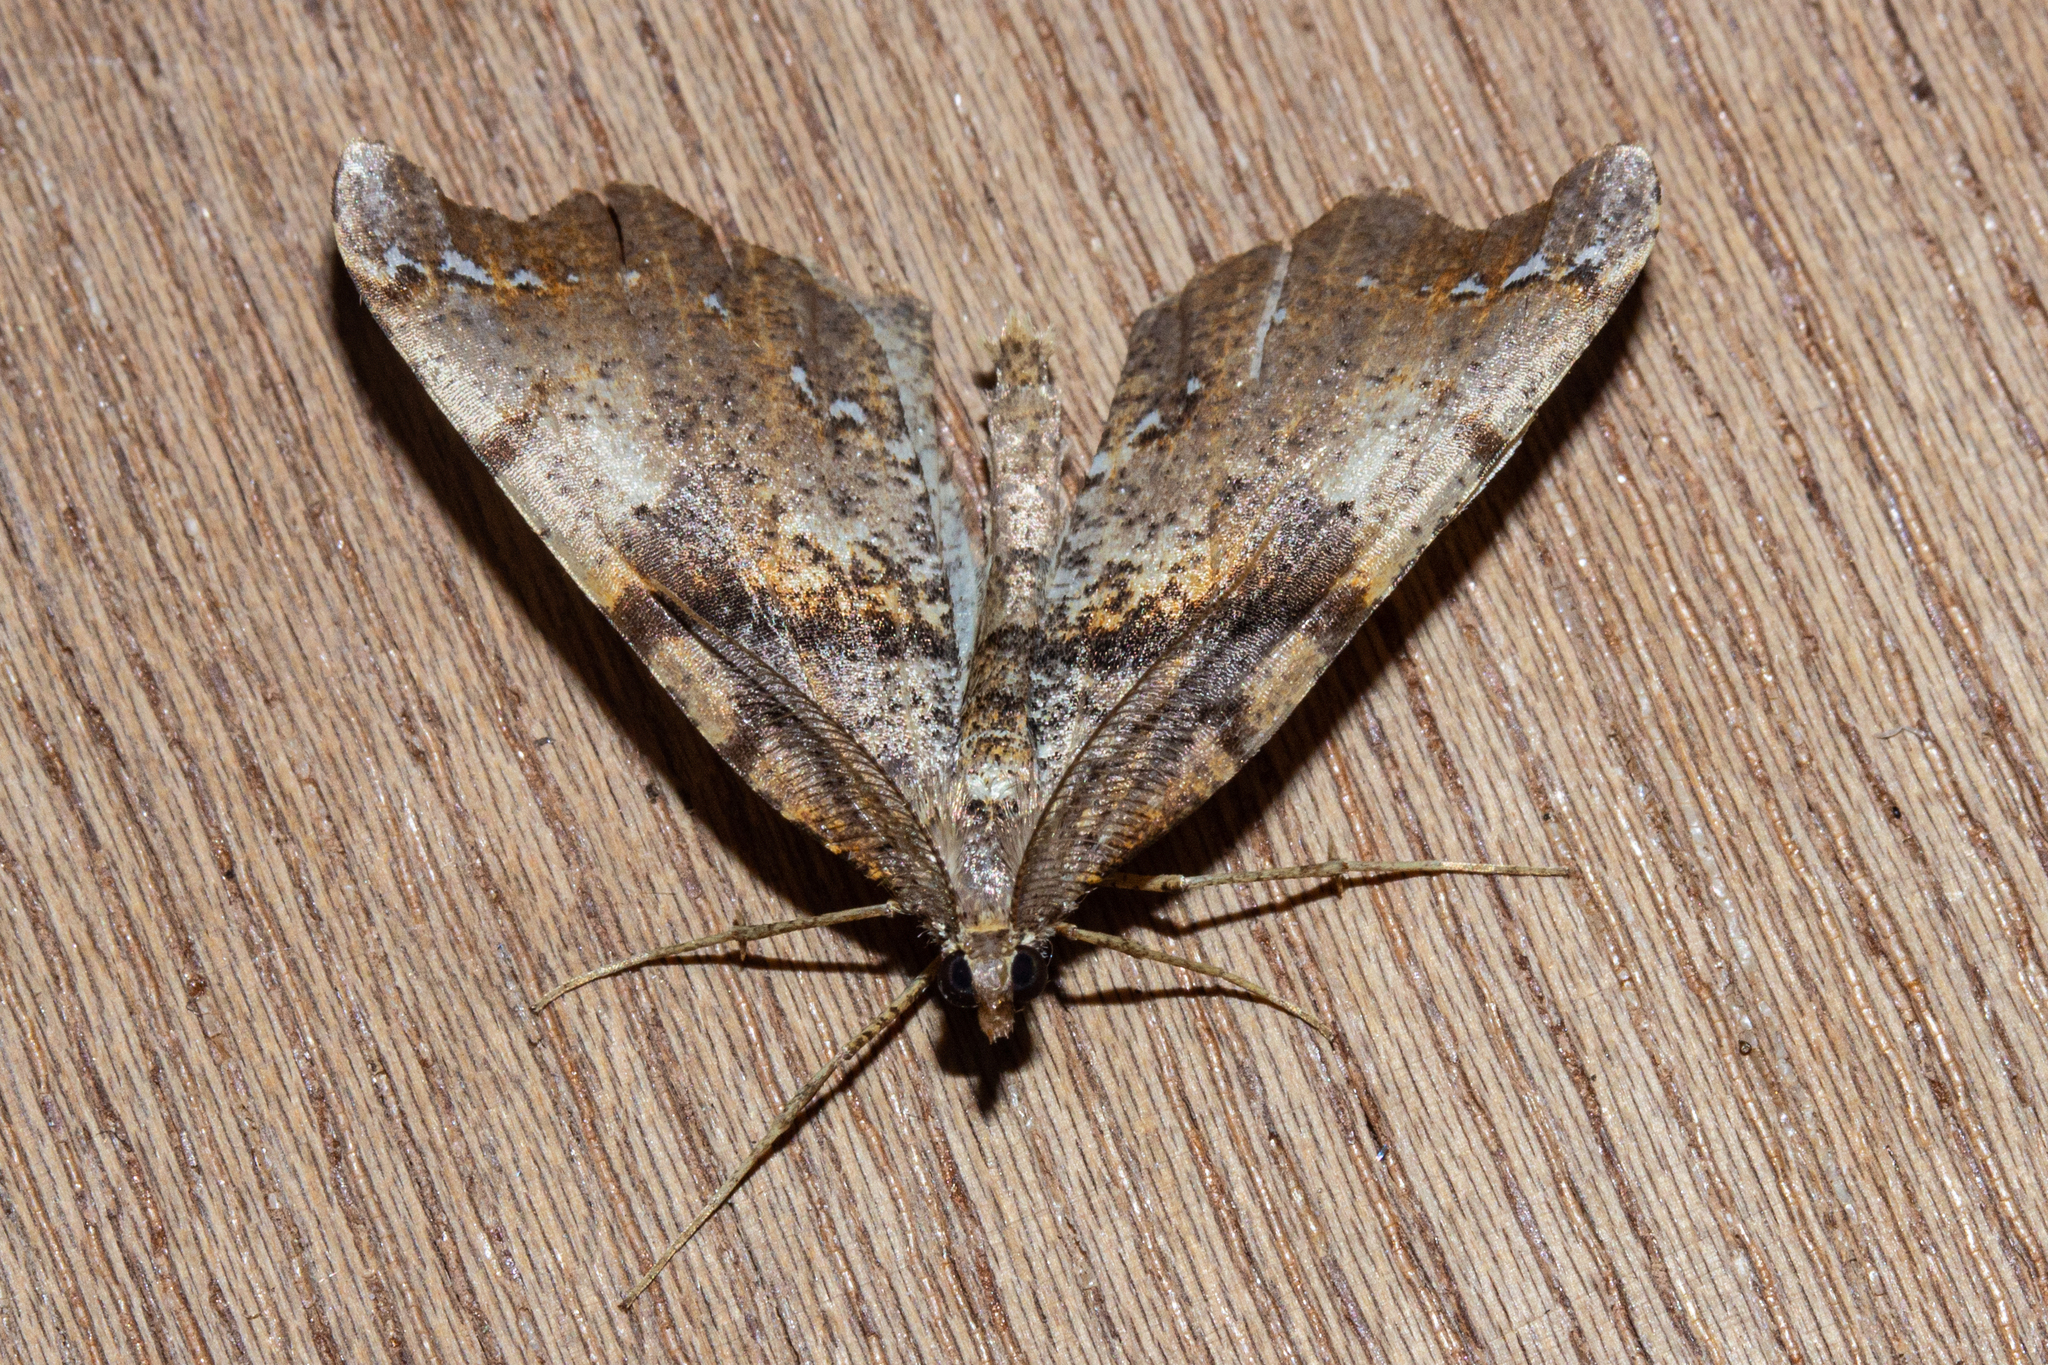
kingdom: Animalia
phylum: Arthropoda
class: Insecta
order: Lepidoptera
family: Geometridae
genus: Chalastra
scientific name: Chalastra pellurgata
